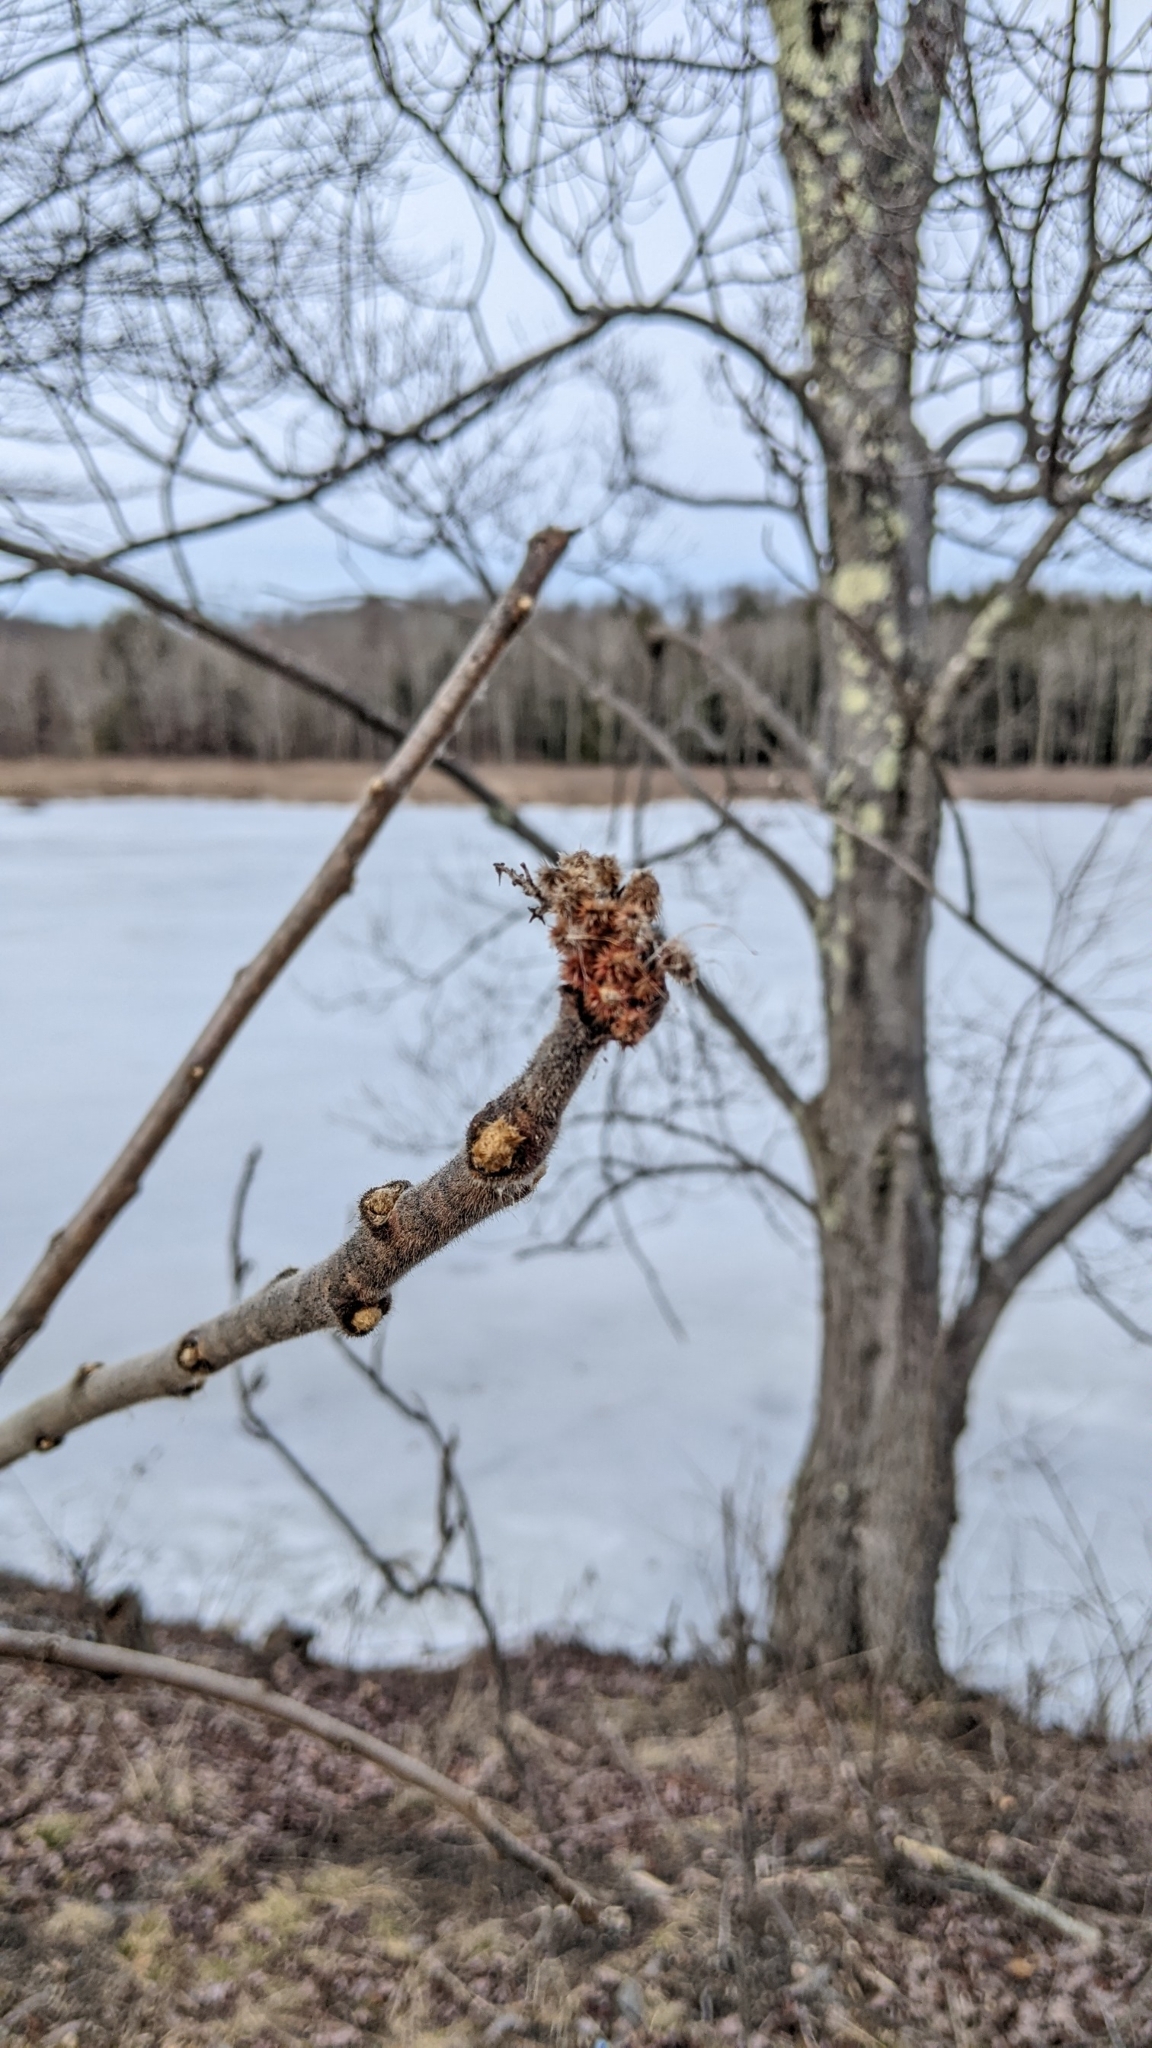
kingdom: Plantae
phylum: Tracheophyta
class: Magnoliopsida
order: Sapindales
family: Anacardiaceae
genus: Rhus
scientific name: Rhus typhina
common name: Staghorn sumac
